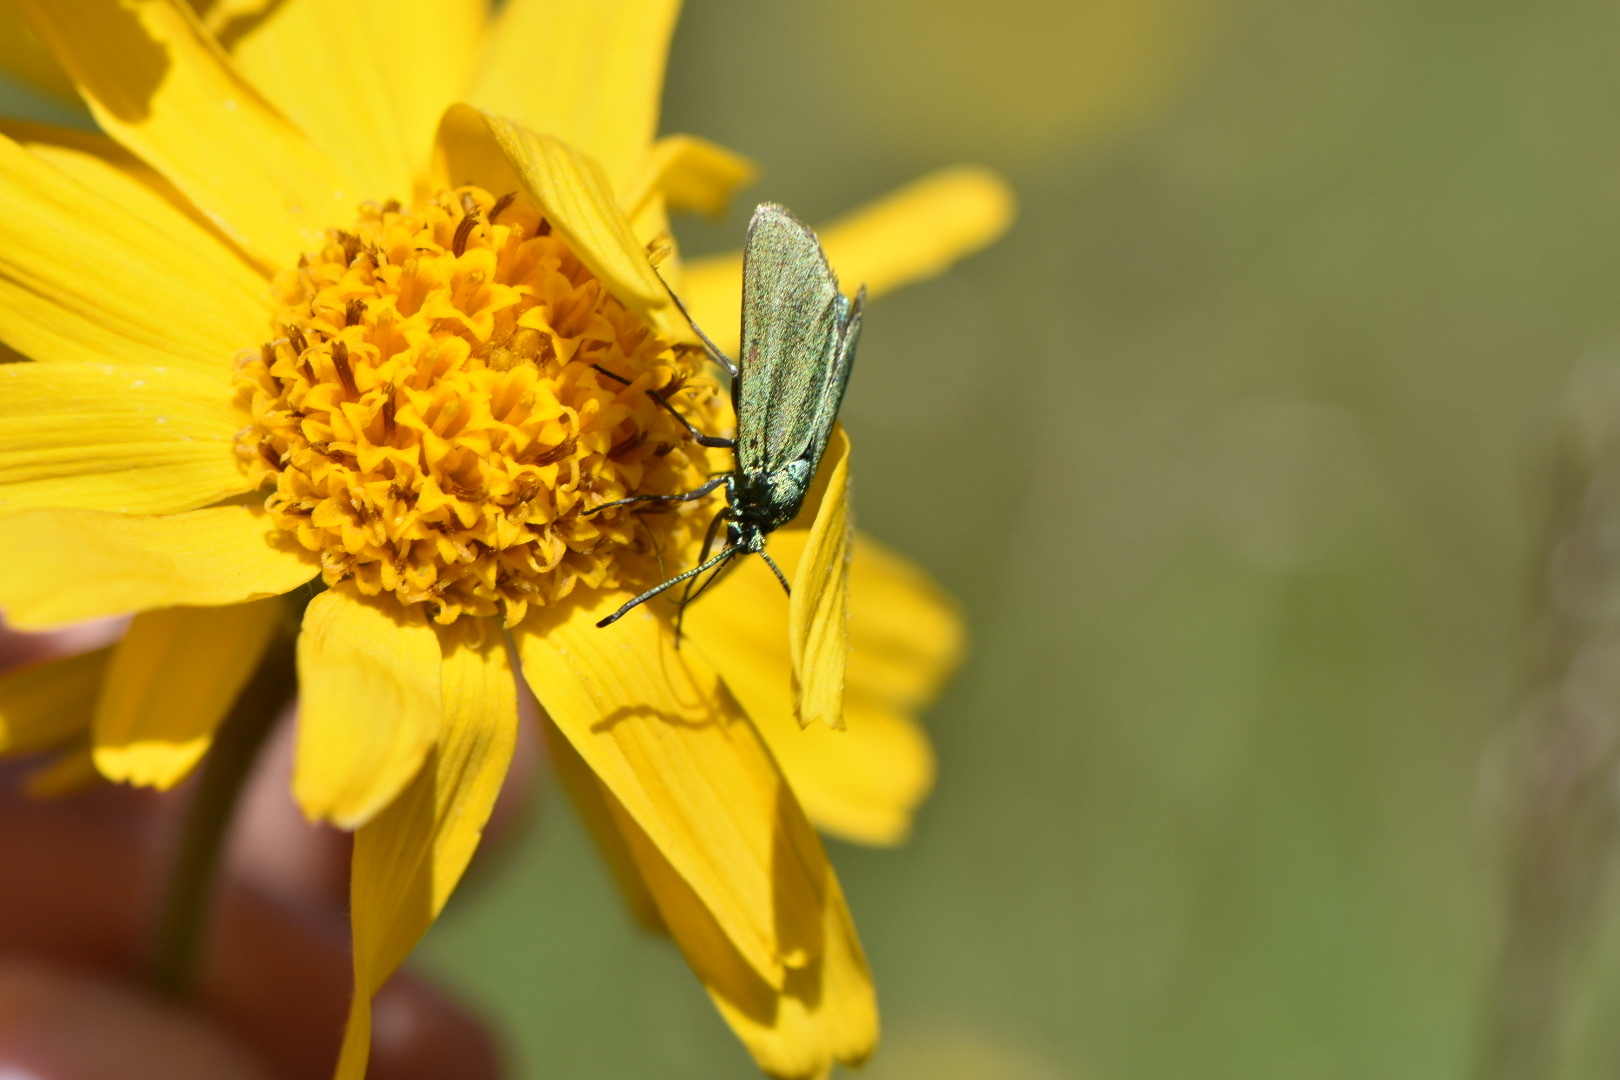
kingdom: Animalia
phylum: Arthropoda
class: Insecta
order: Lepidoptera
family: Zygaenidae
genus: Adscita
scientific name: Adscita statices
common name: Forester
